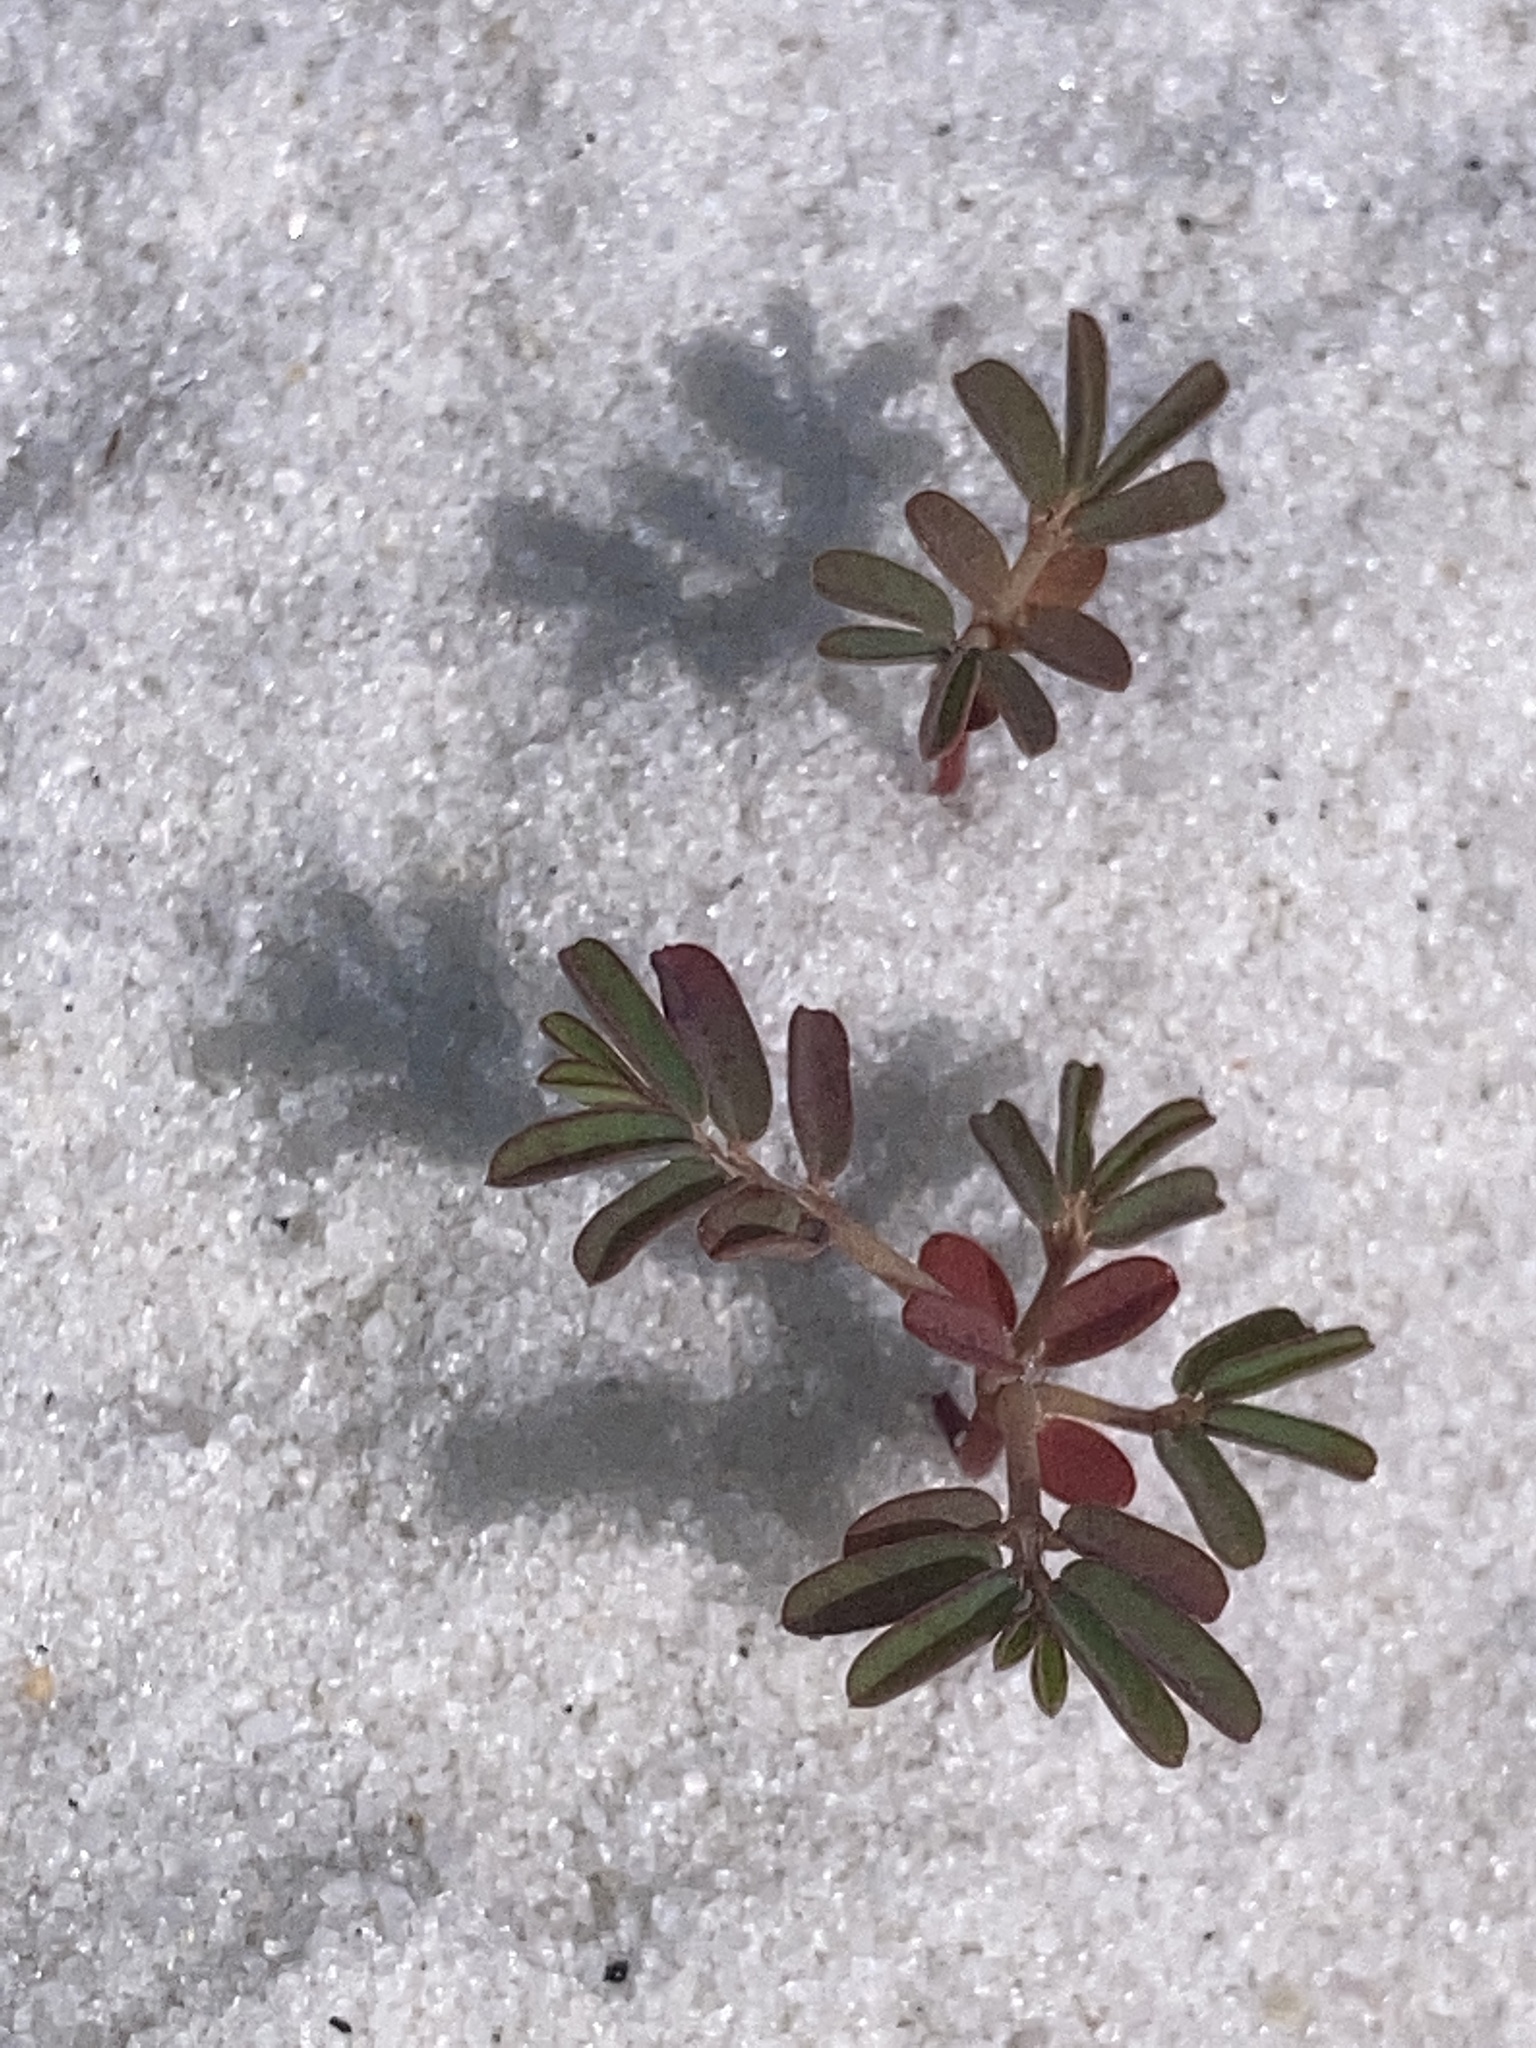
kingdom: Plantae
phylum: Tracheophyta
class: Magnoliopsida
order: Malpighiales
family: Euphorbiaceae
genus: Euphorbia
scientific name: Euphorbia bombensis
